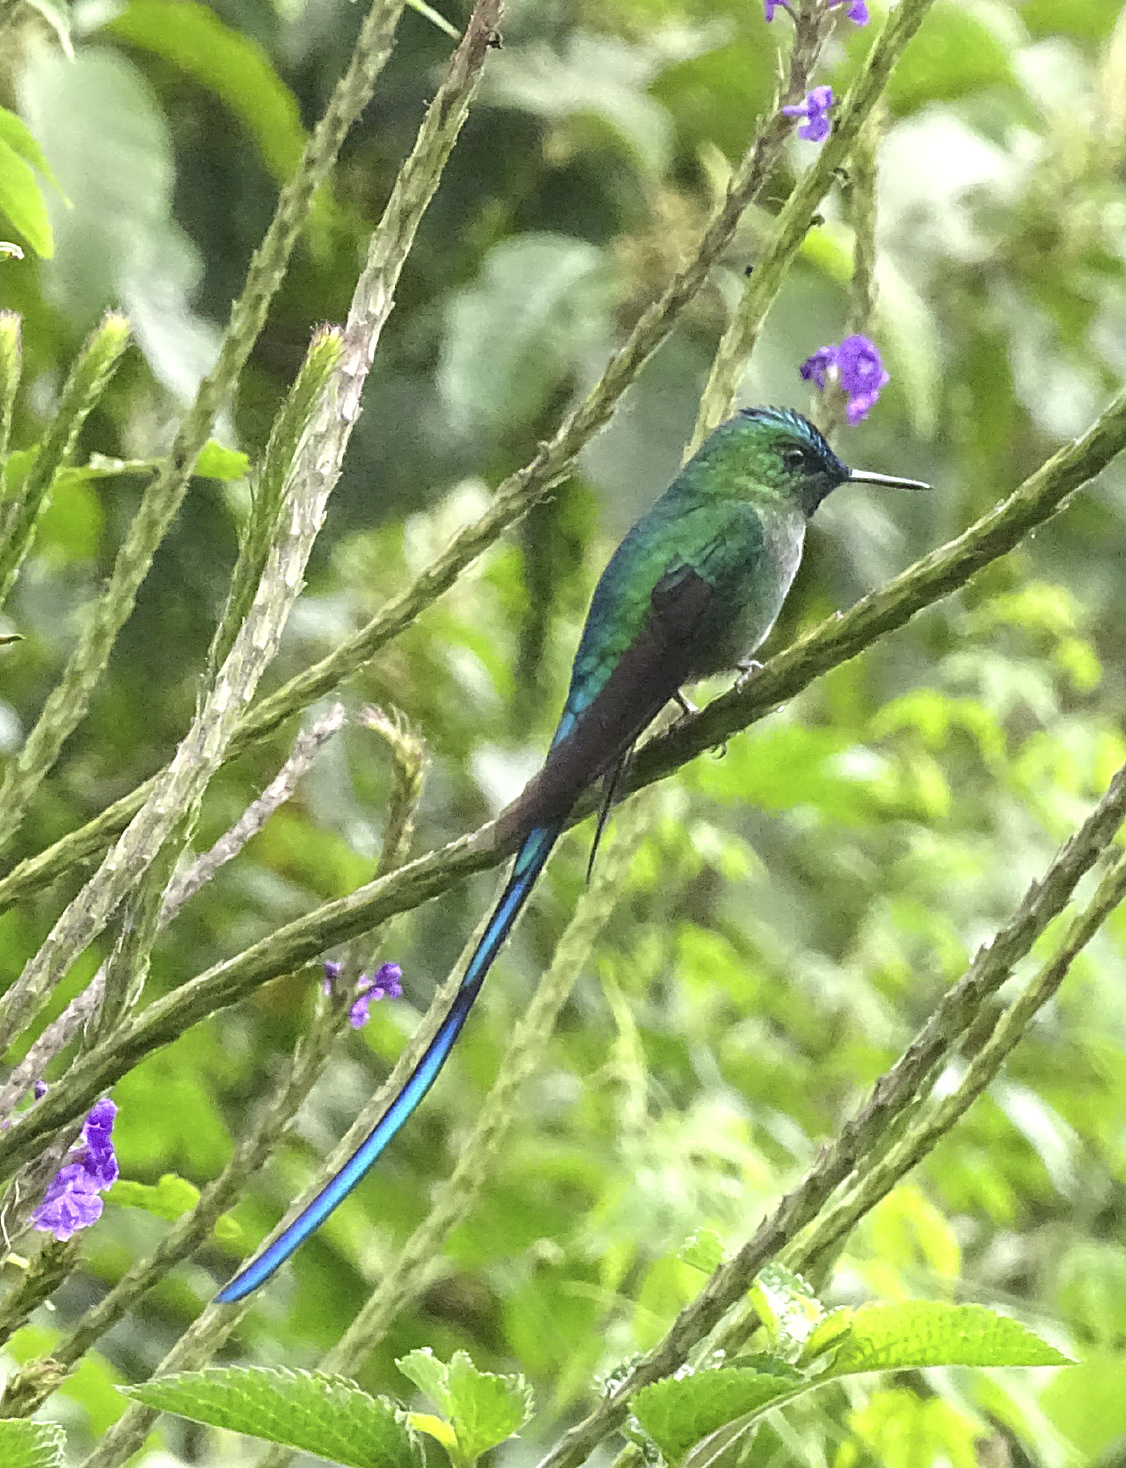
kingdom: Animalia
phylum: Chordata
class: Aves
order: Apodiformes
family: Trochilidae
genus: Aglaiocercus
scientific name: Aglaiocercus kingii
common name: Long-tailed sylph
